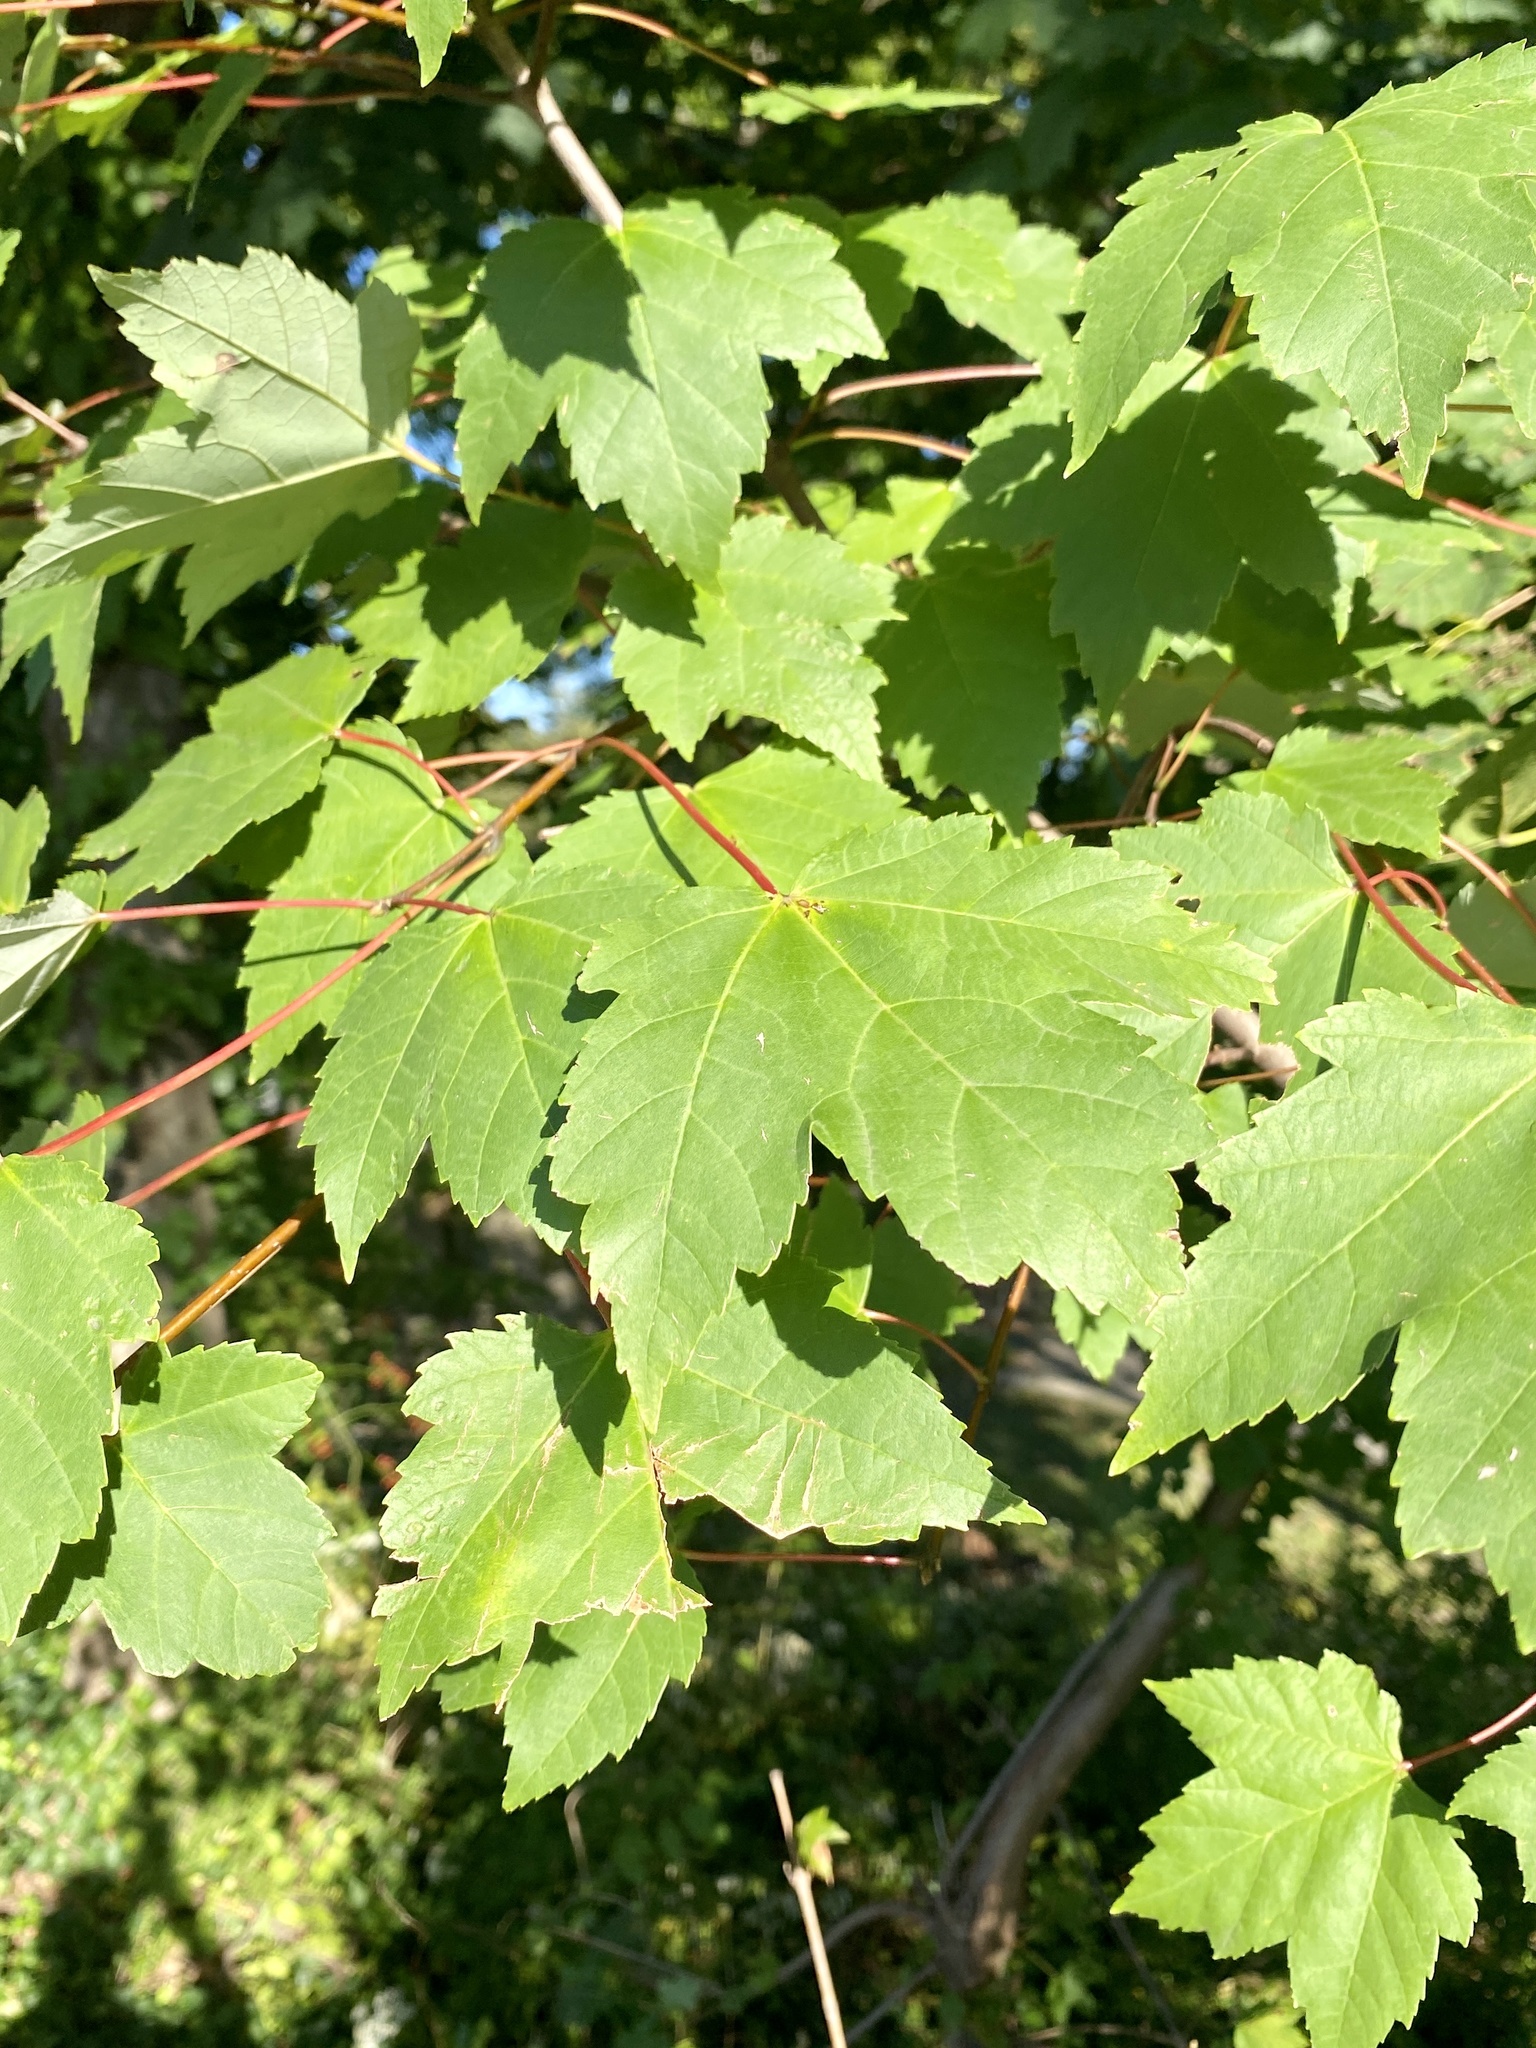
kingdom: Plantae
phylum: Tracheophyta
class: Magnoliopsida
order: Sapindales
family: Sapindaceae
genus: Acer
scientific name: Acer rubrum
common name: Red maple
